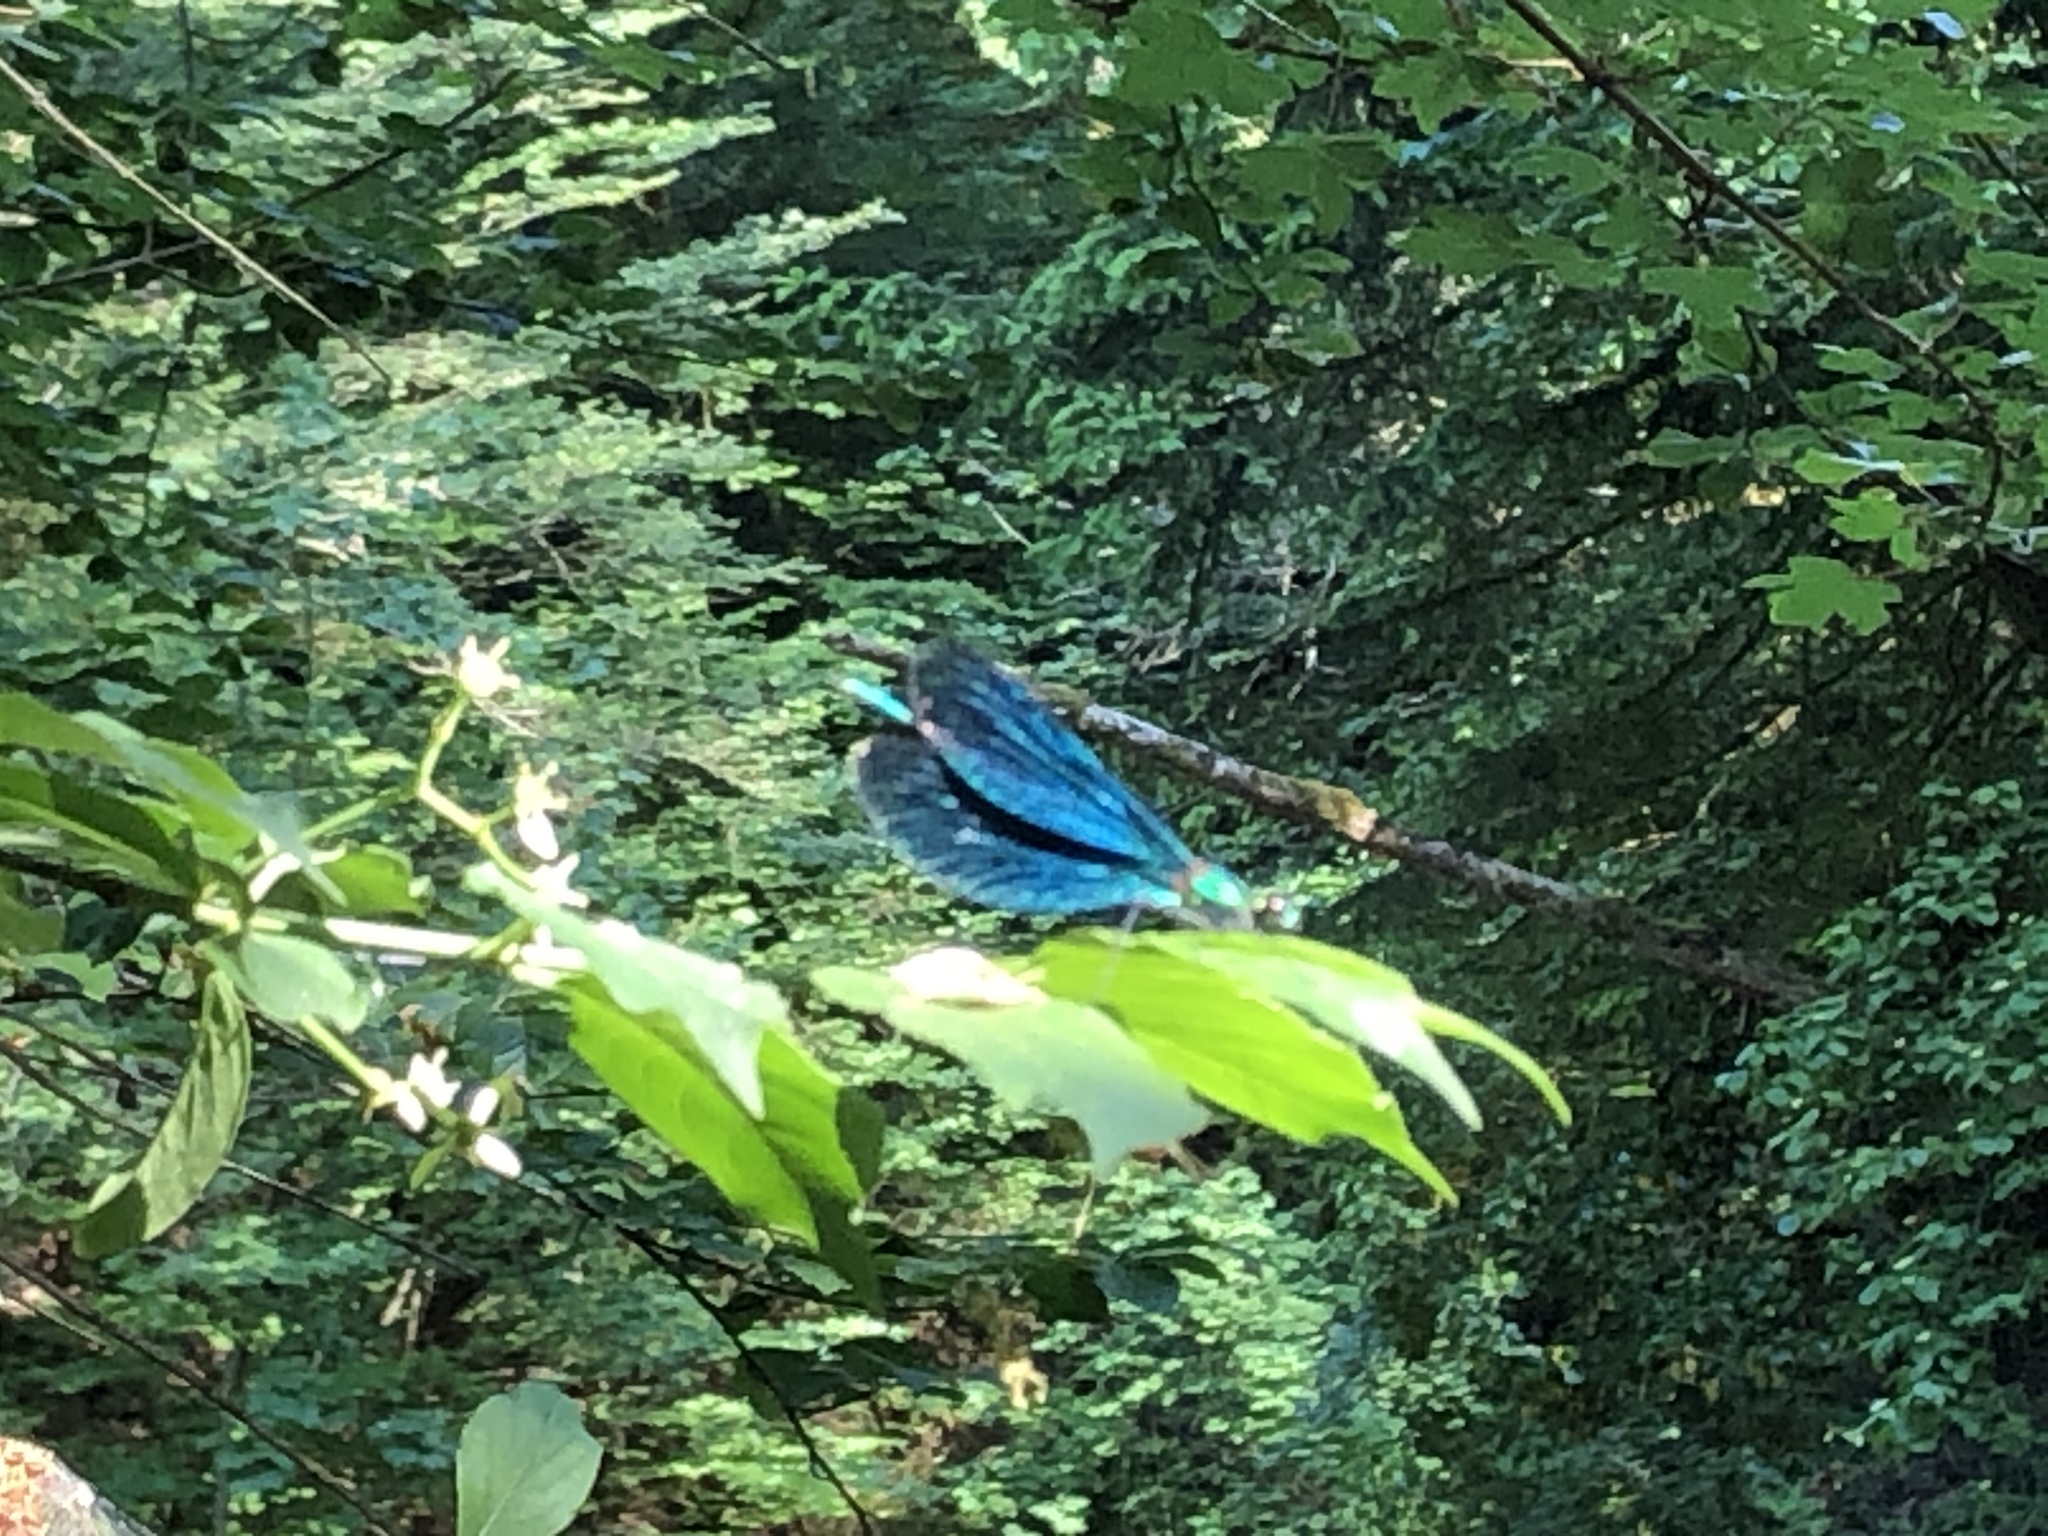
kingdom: Animalia
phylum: Arthropoda
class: Insecta
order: Odonata
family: Calopterygidae
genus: Calopteryx
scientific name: Calopteryx virgo
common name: Beautiful demoiselle
